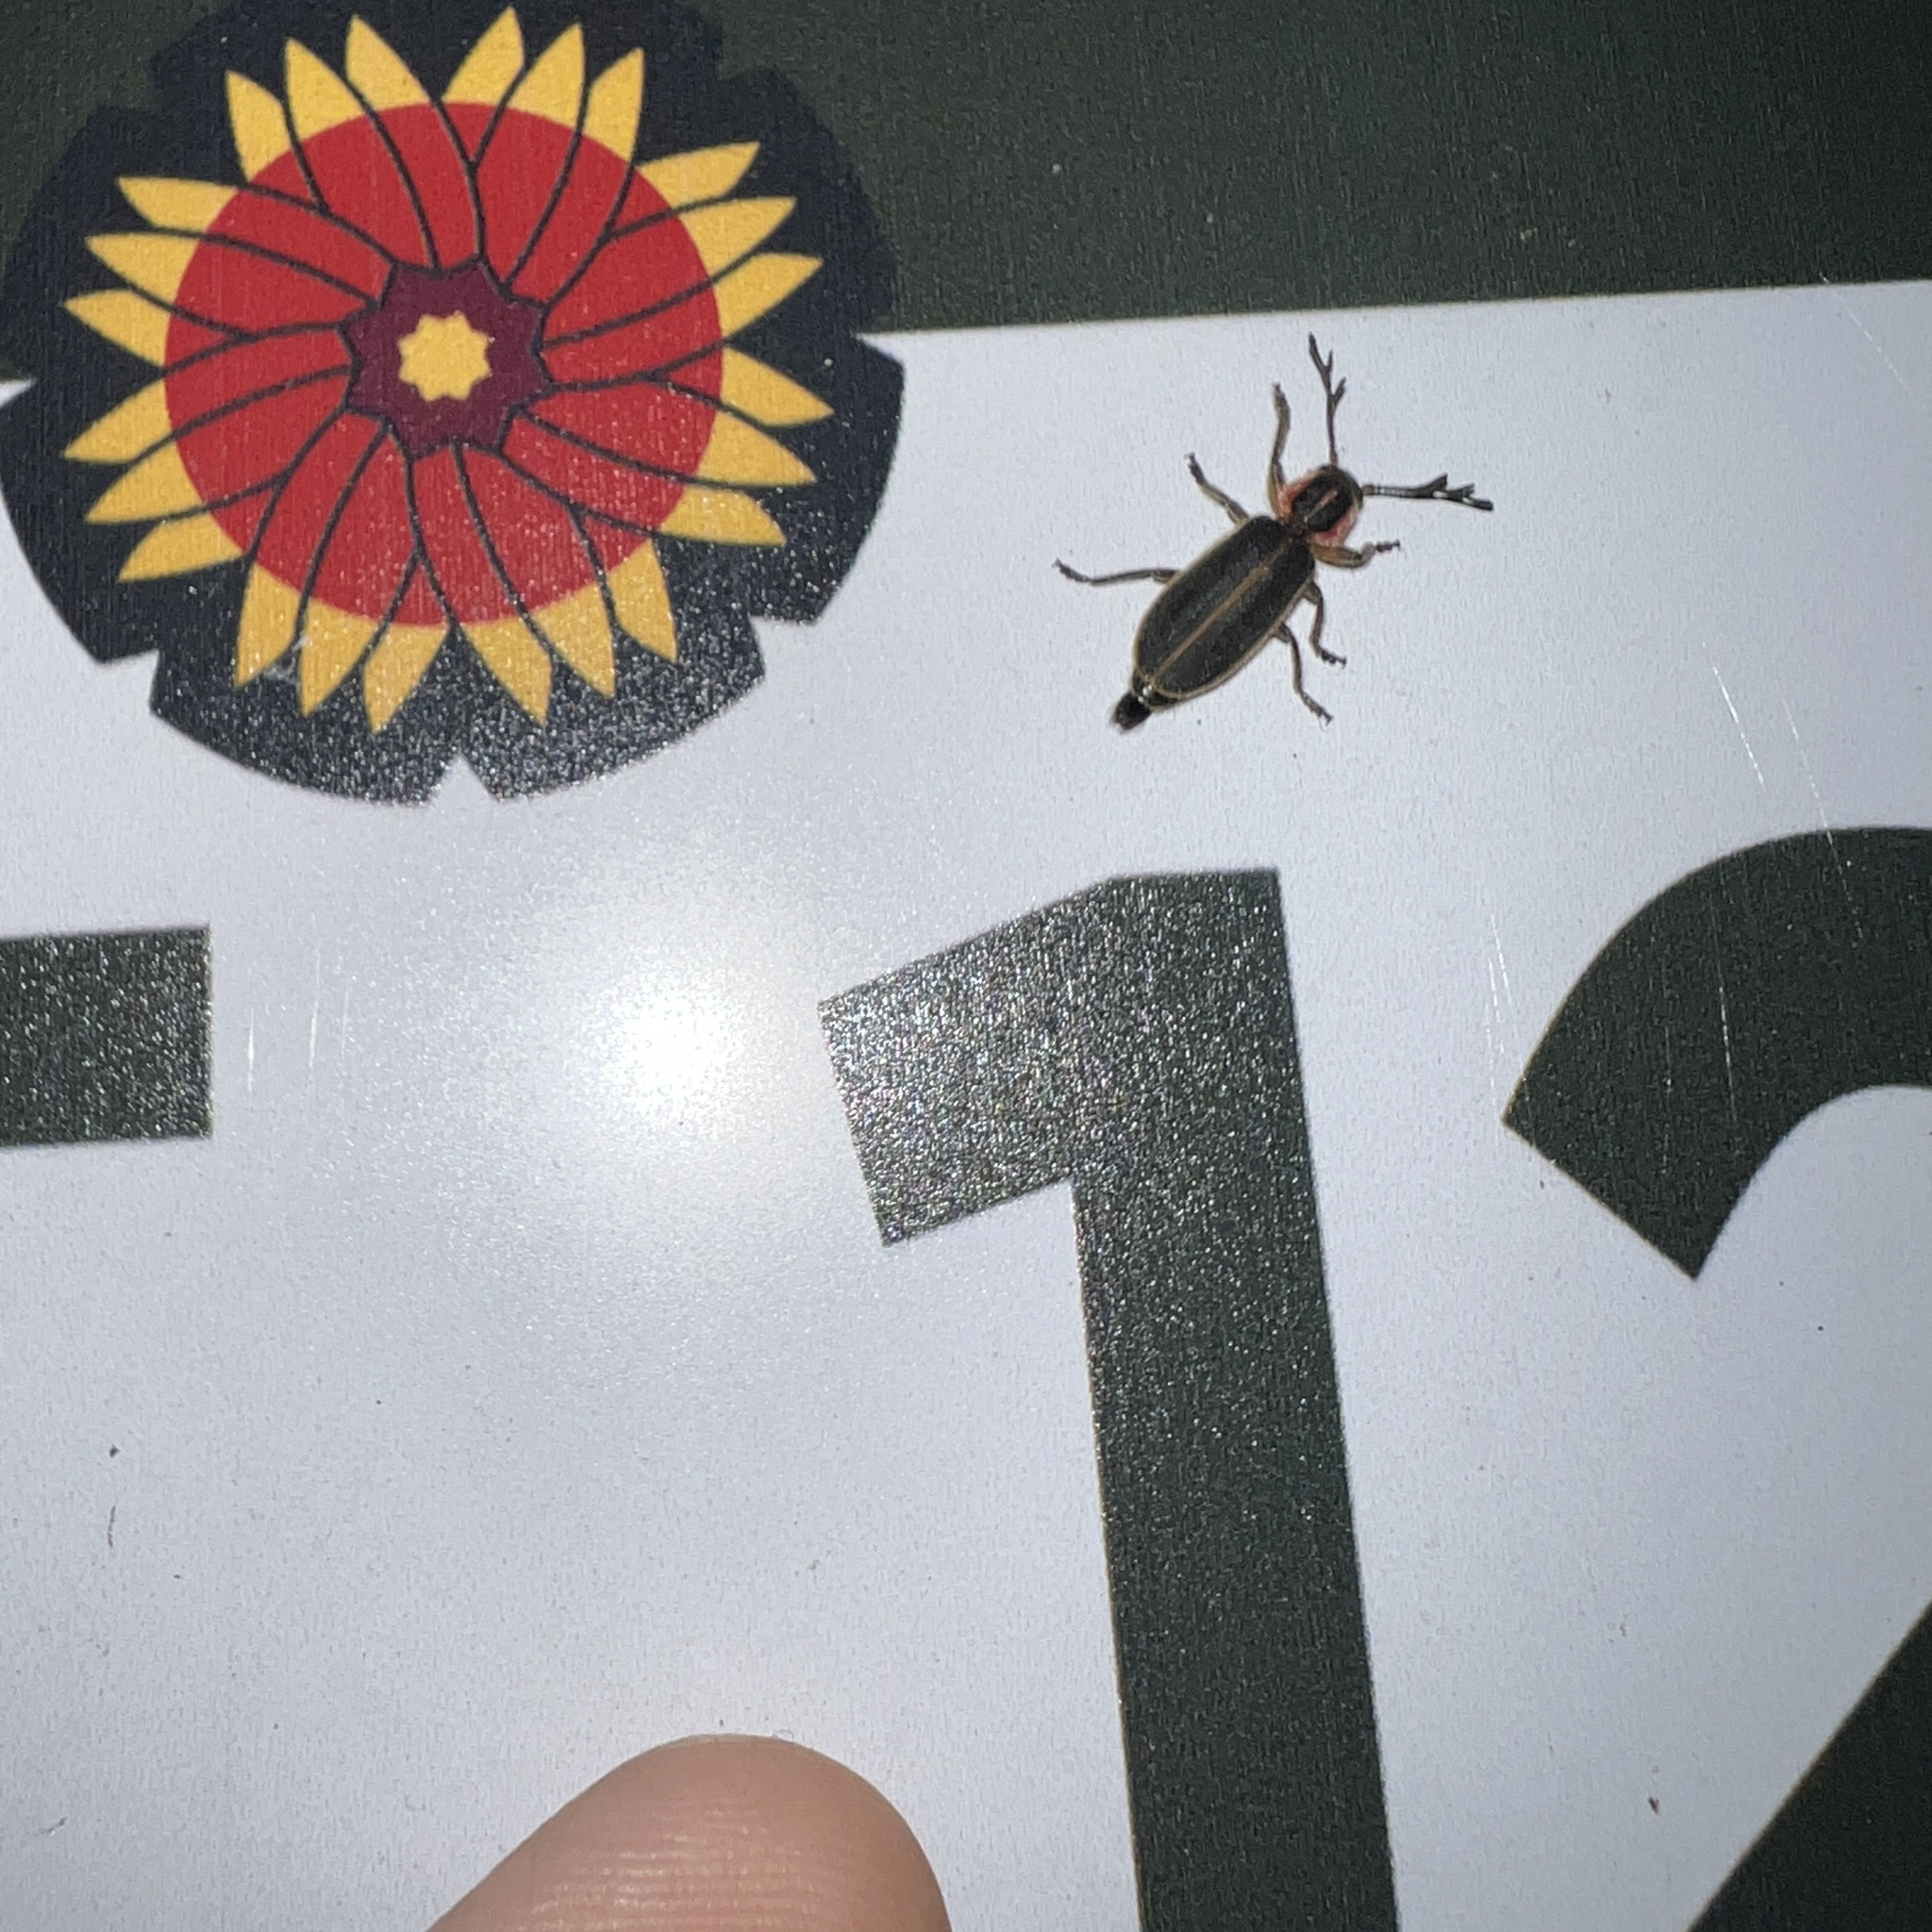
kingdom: Animalia
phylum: Arthropoda
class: Insecta
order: Coleoptera
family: Cleridae
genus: Chariessa
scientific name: Chariessa pilosa
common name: Pilose checkered beetle
